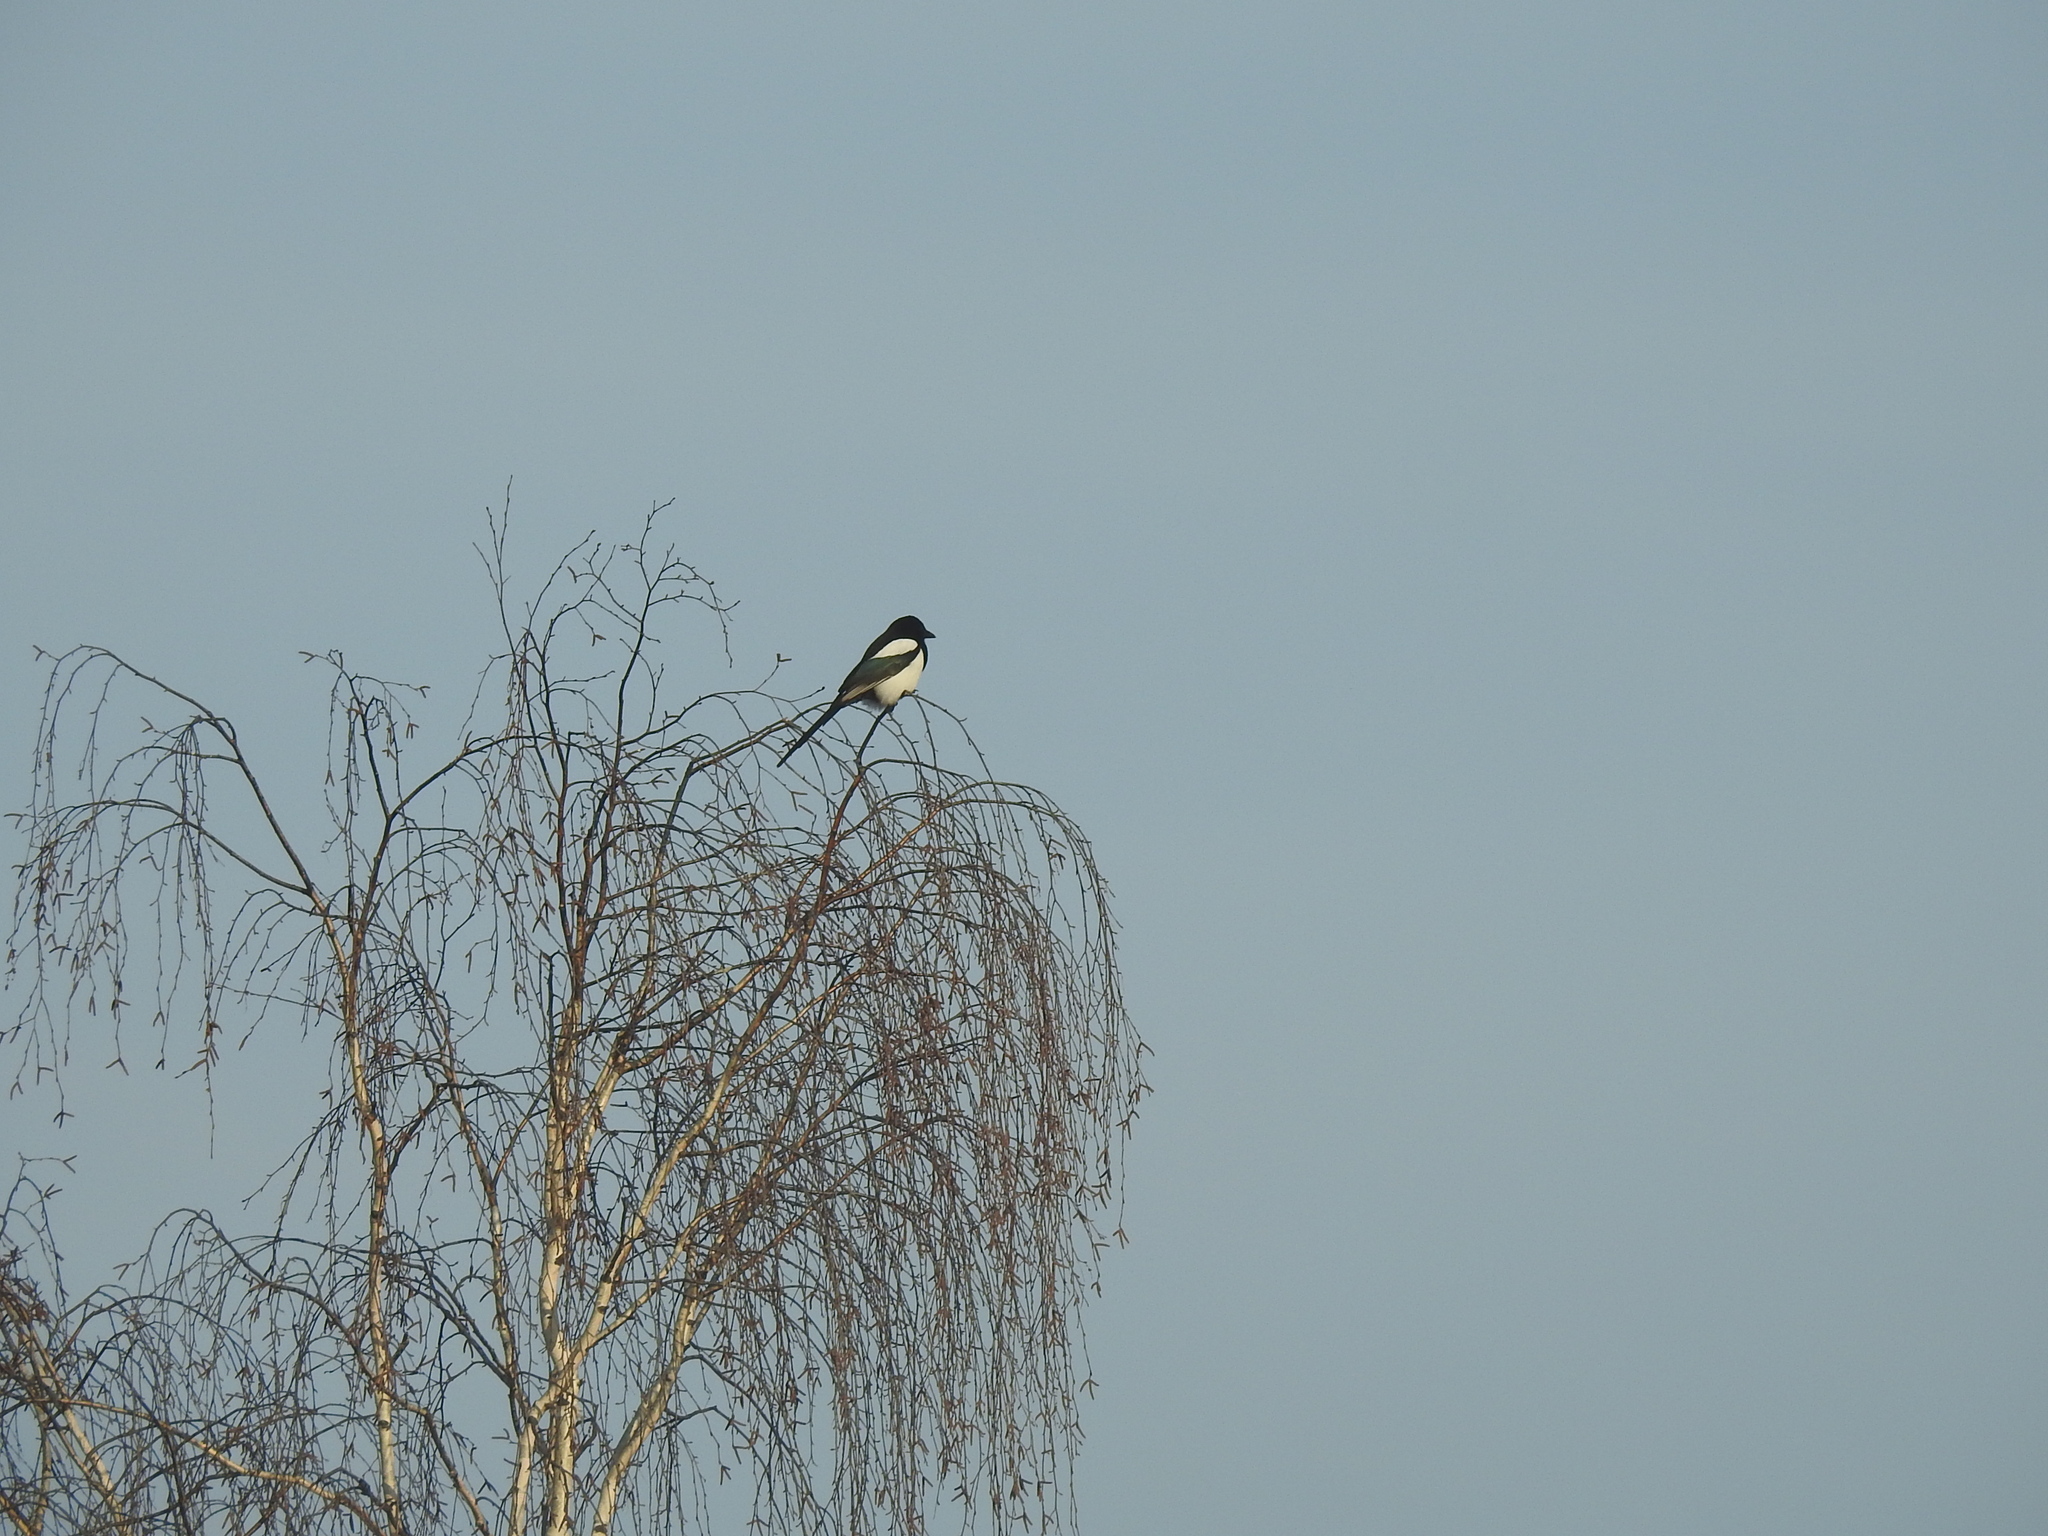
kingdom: Animalia
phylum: Chordata
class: Aves
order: Passeriformes
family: Corvidae
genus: Pica
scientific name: Pica pica
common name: Eurasian magpie
